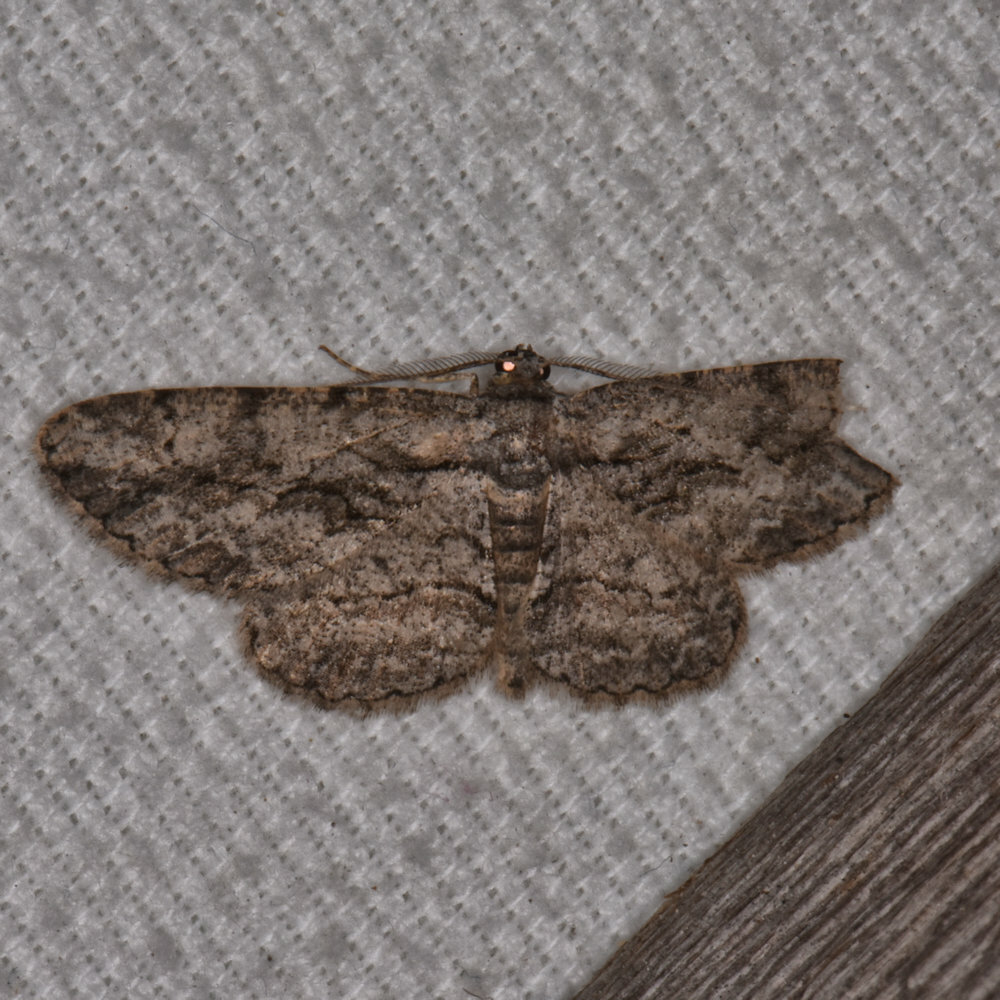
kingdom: Animalia
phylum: Arthropoda
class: Insecta
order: Lepidoptera
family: Geometridae
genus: Anavitrinella
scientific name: Anavitrinella pampinaria
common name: Common gray
